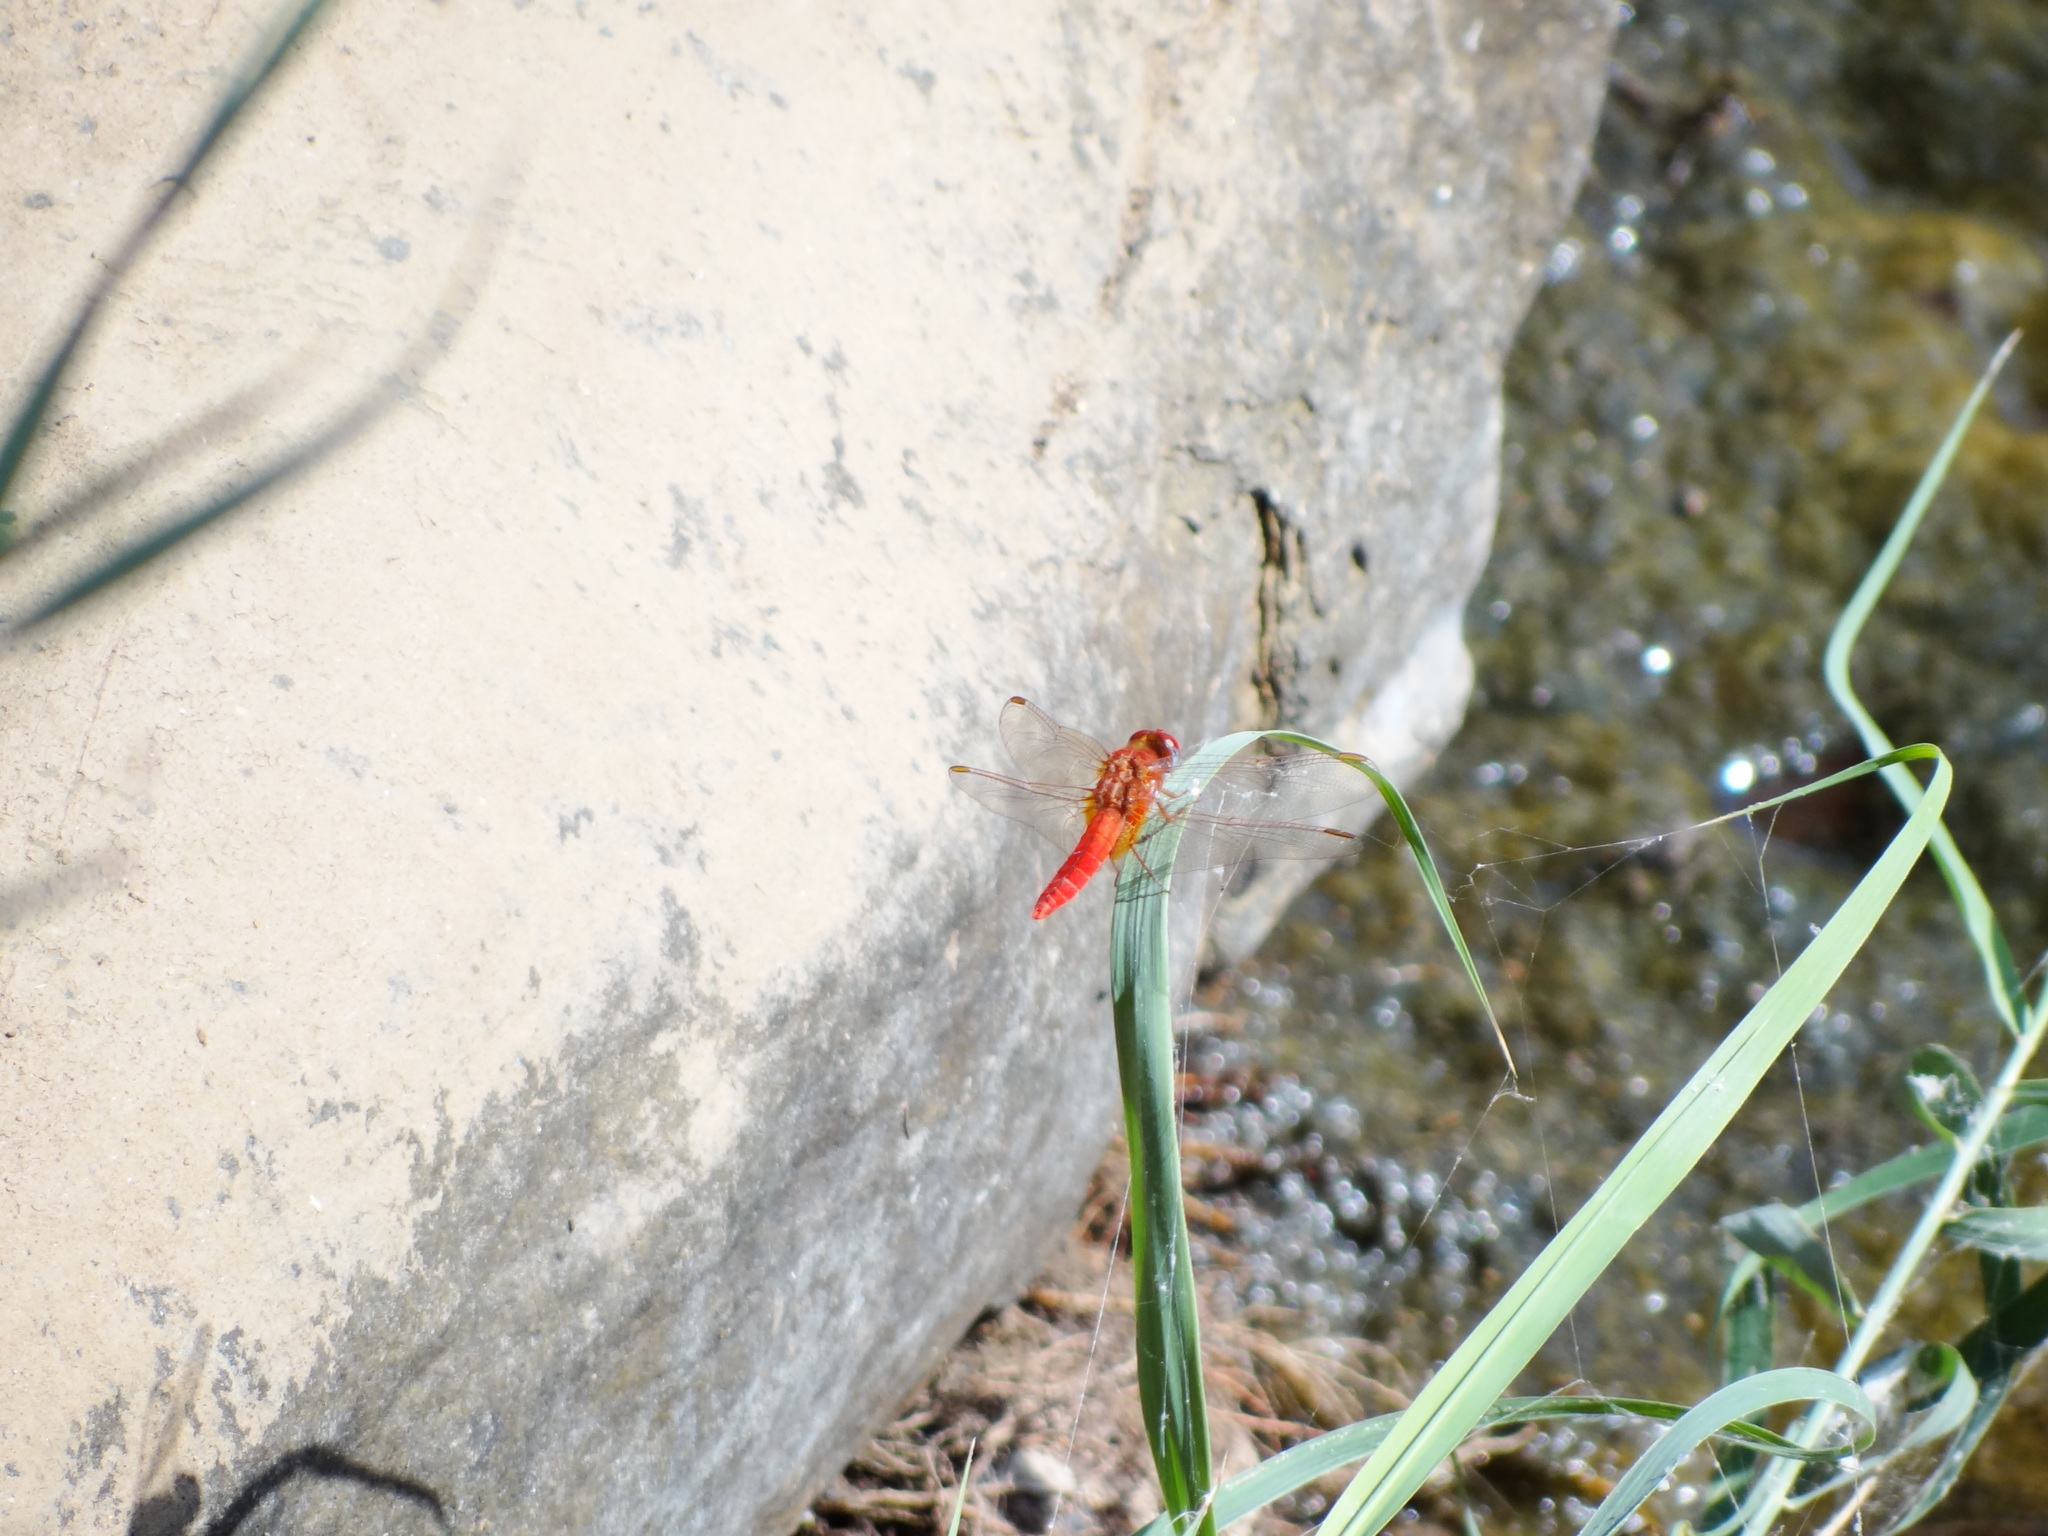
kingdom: Animalia
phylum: Arthropoda
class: Insecta
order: Odonata
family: Libellulidae
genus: Crocothemis
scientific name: Crocothemis servilia
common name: Scarlet skimmer
